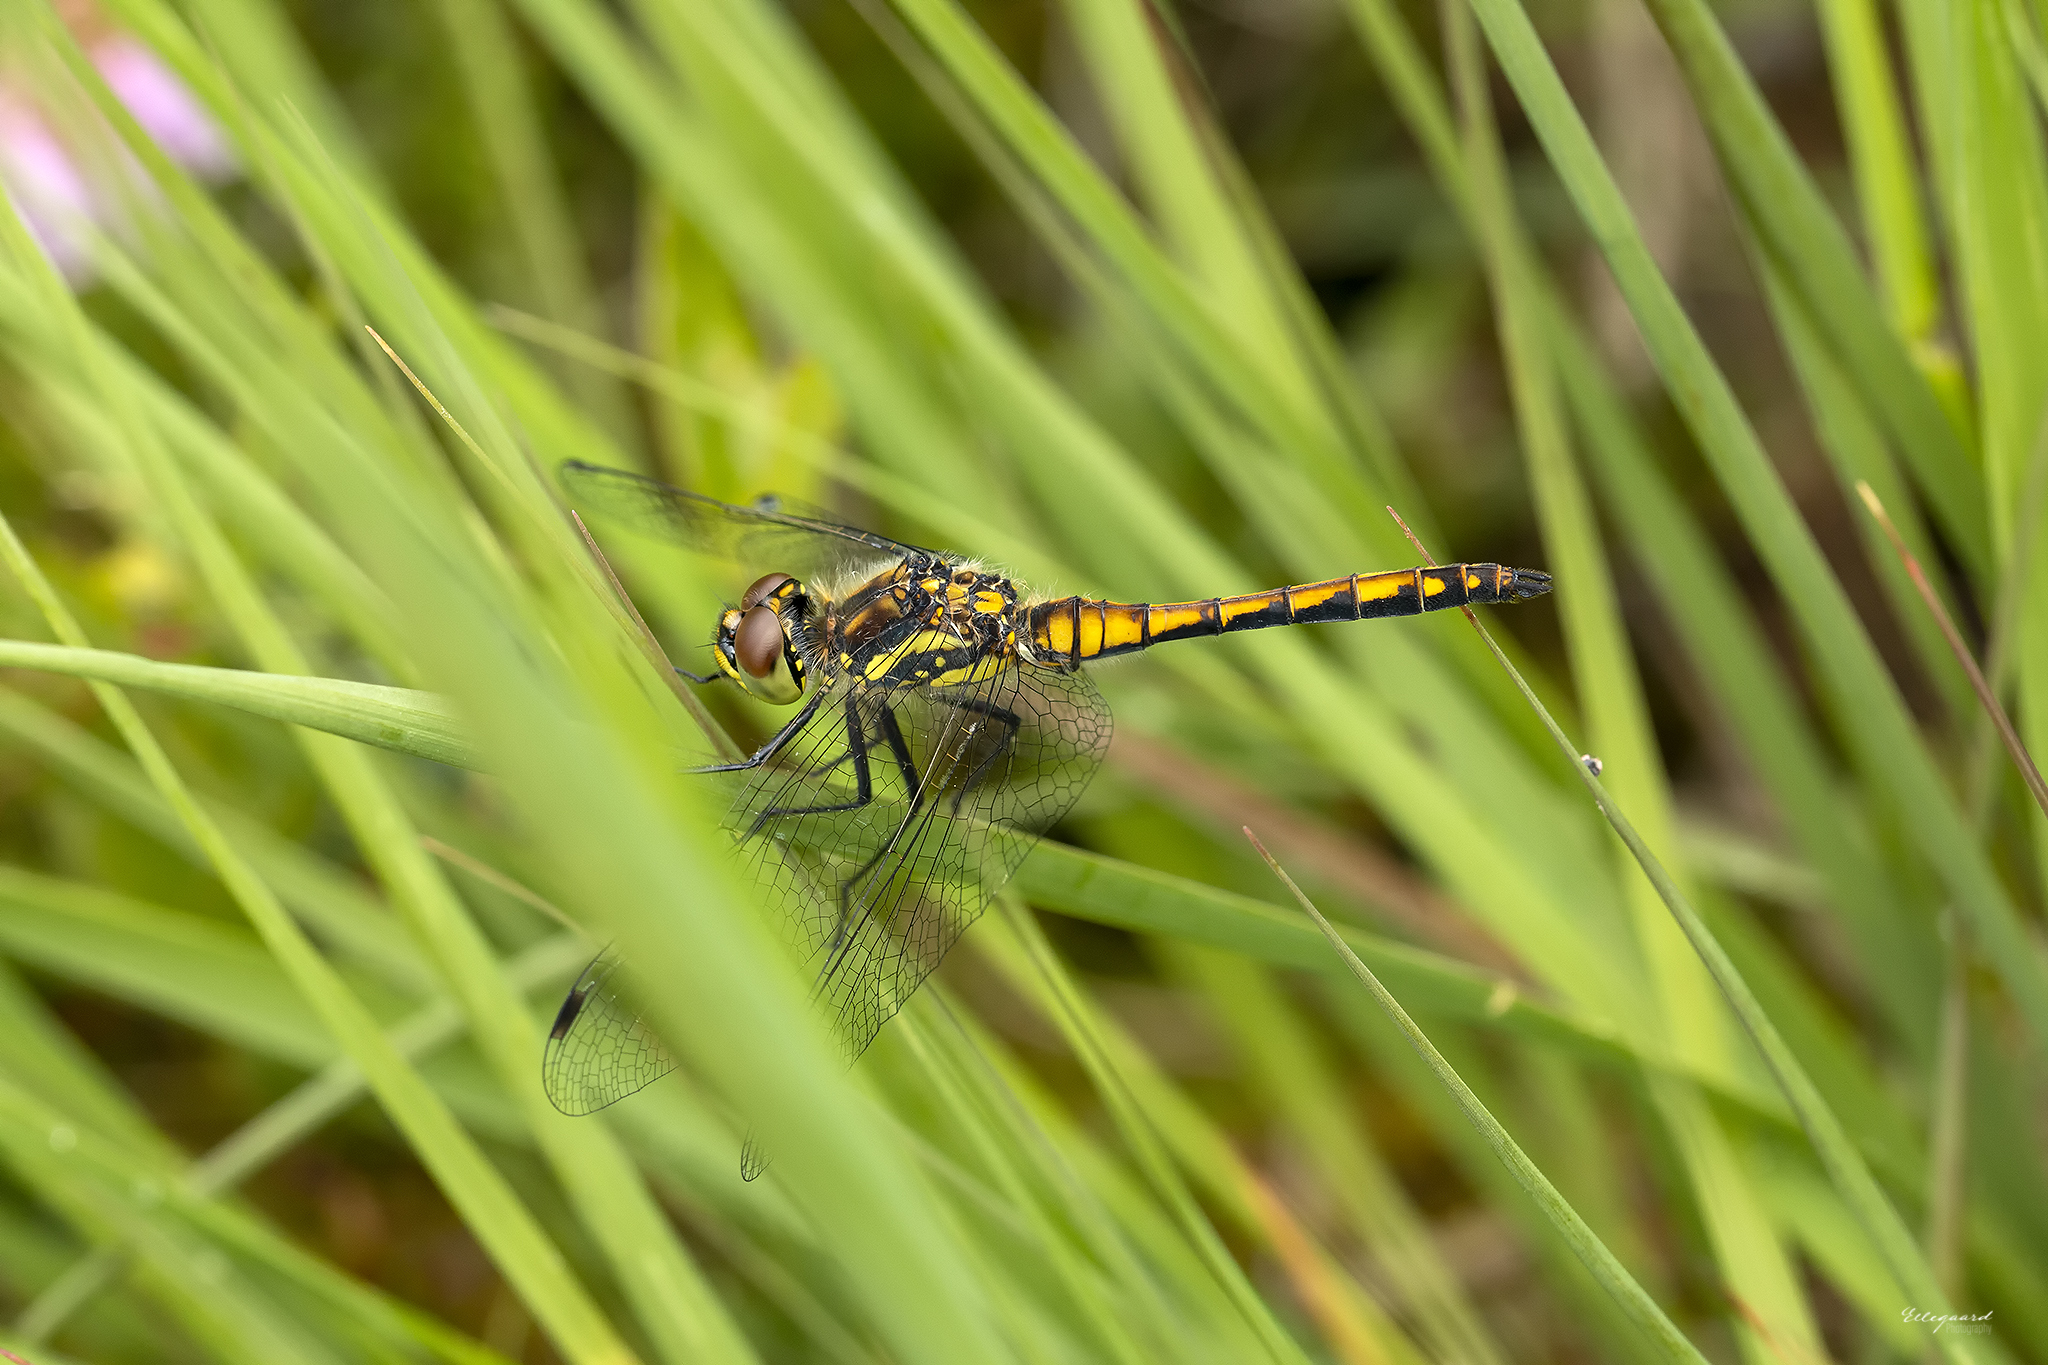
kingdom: Animalia
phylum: Arthropoda
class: Insecta
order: Odonata
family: Libellulidae
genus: Sympetrum
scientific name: Sympetrum danae
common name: Black darter
